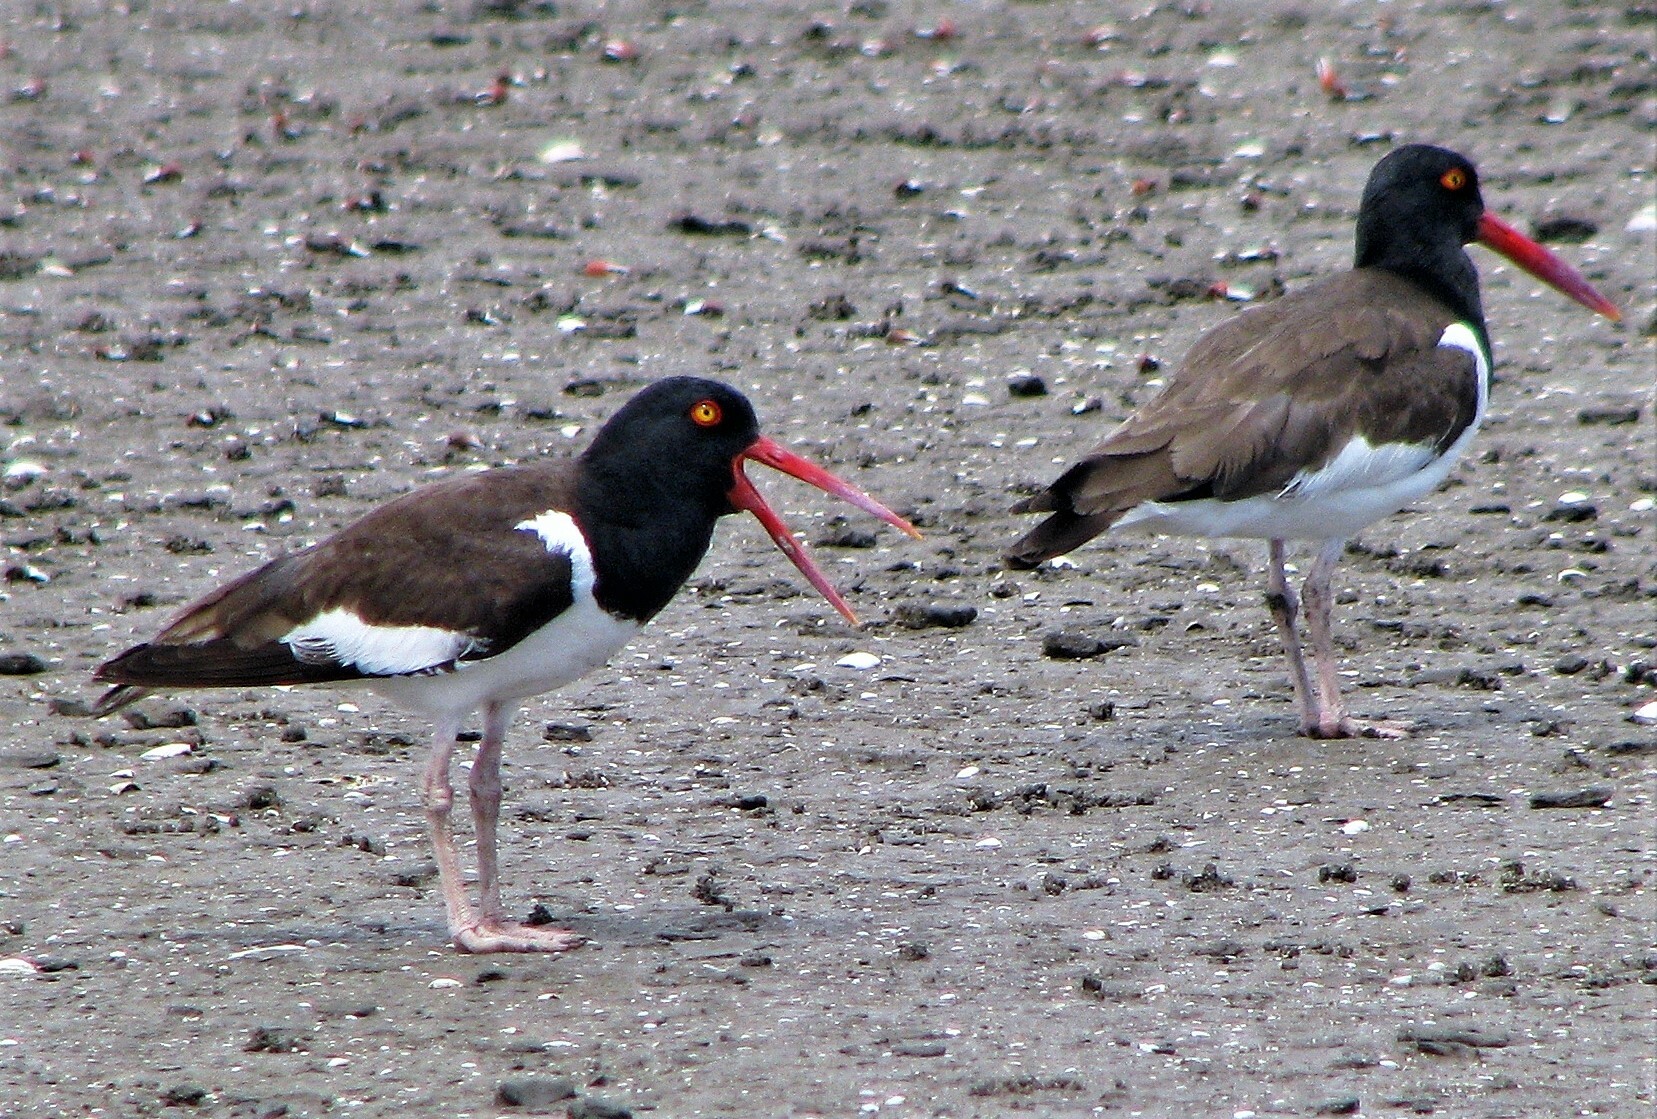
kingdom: Animalia
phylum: Chordata
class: Aves
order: Charadriiformes
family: Haematopodidae
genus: Haematopus
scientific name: Haematopus palliatus
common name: American oystercatcher
